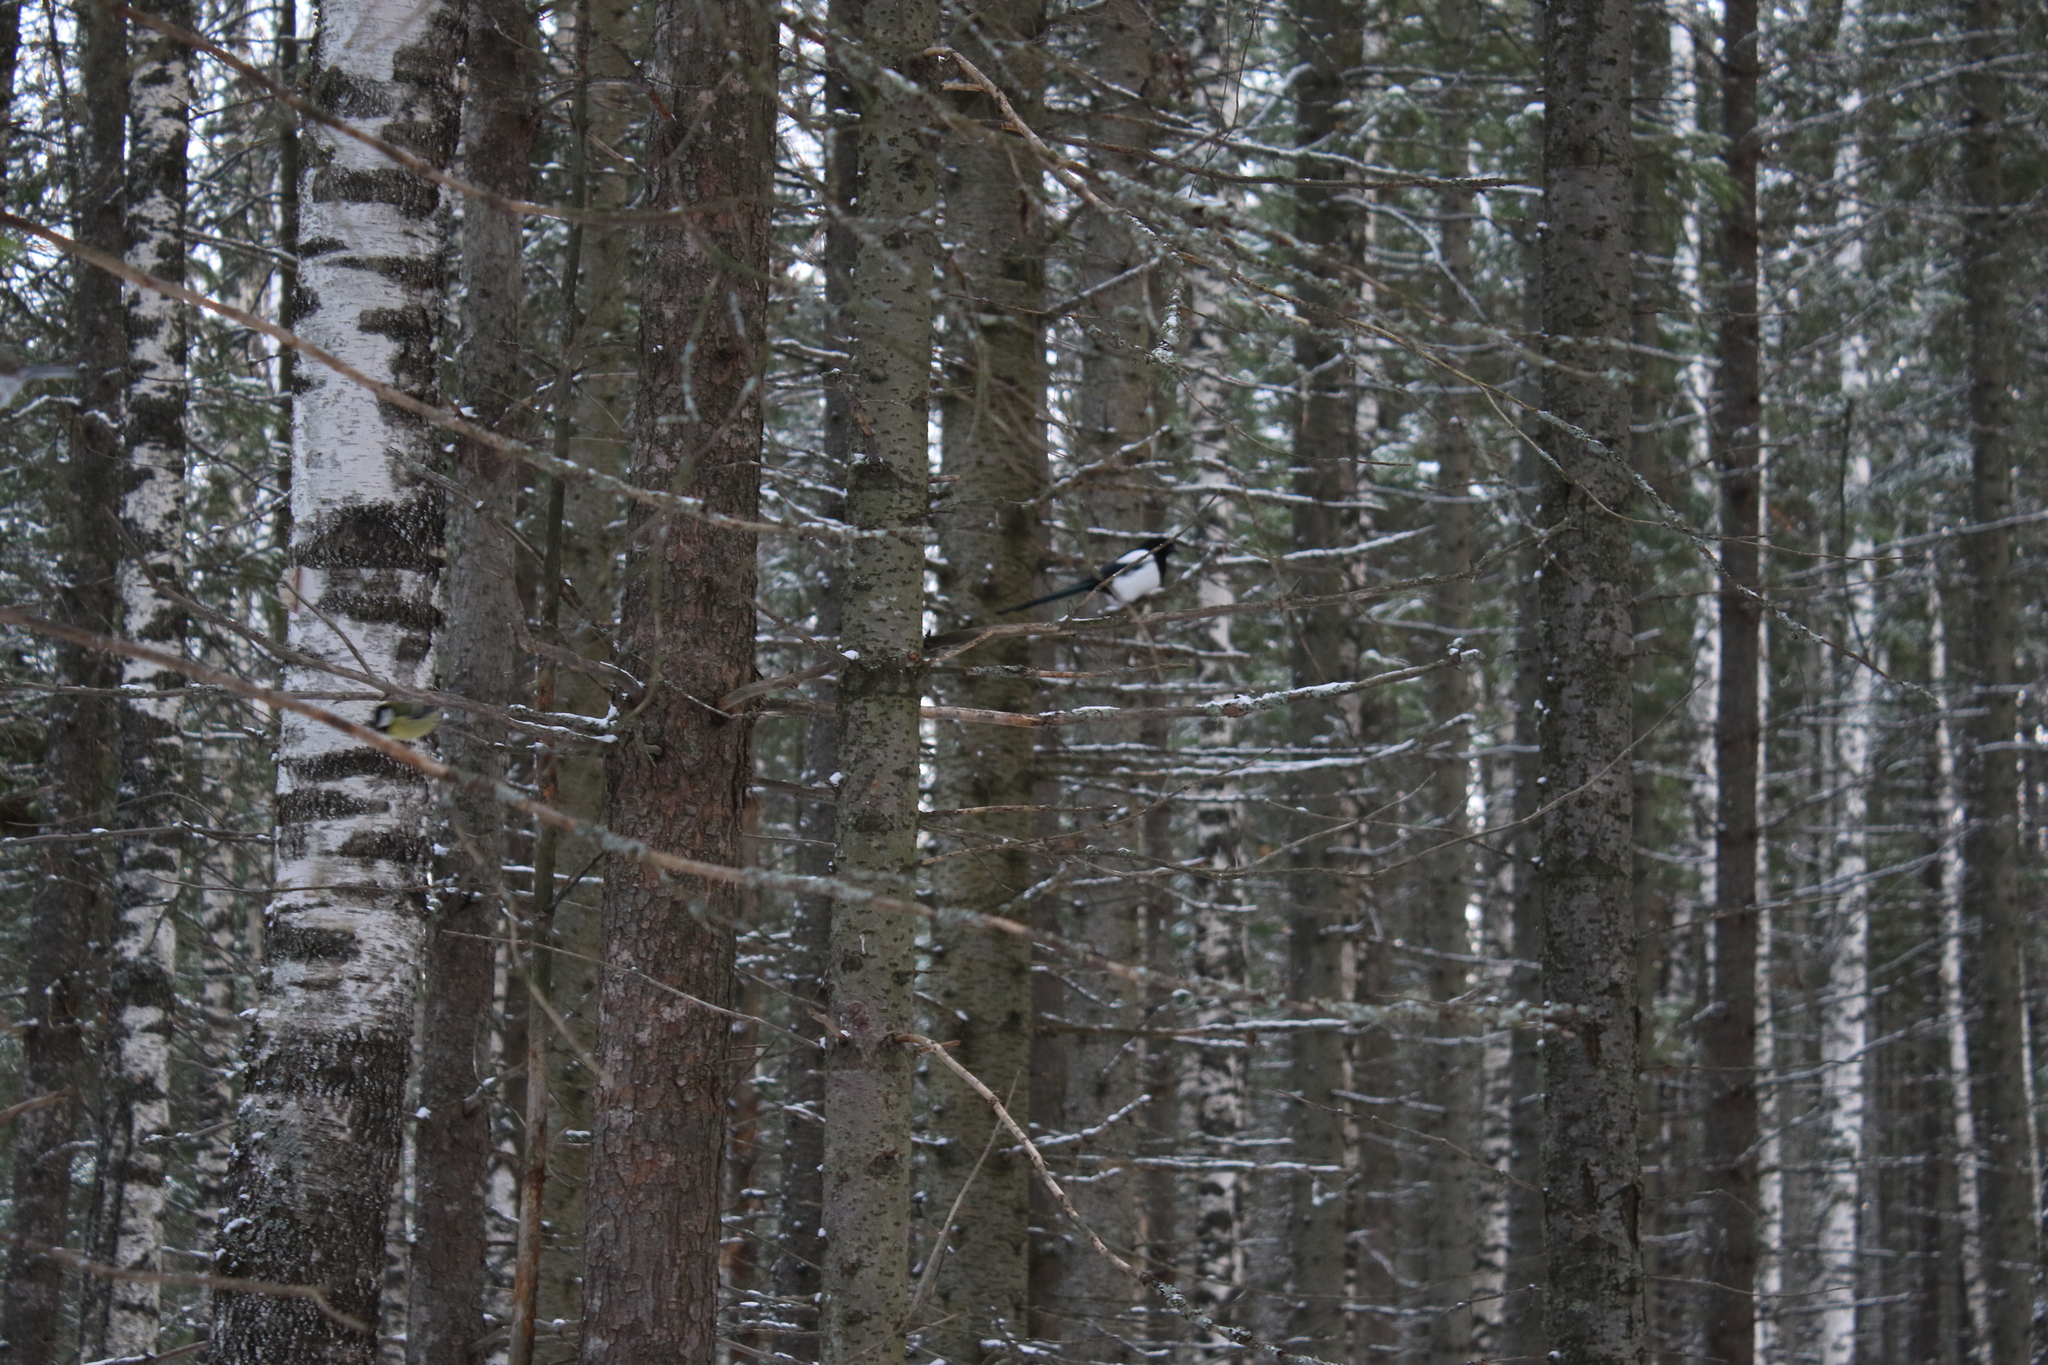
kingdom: Animalia
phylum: Chordata
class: Aves
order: Passeriformes
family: Corvidae
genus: Pica
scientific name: Pica pica
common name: Eurasian magpie
